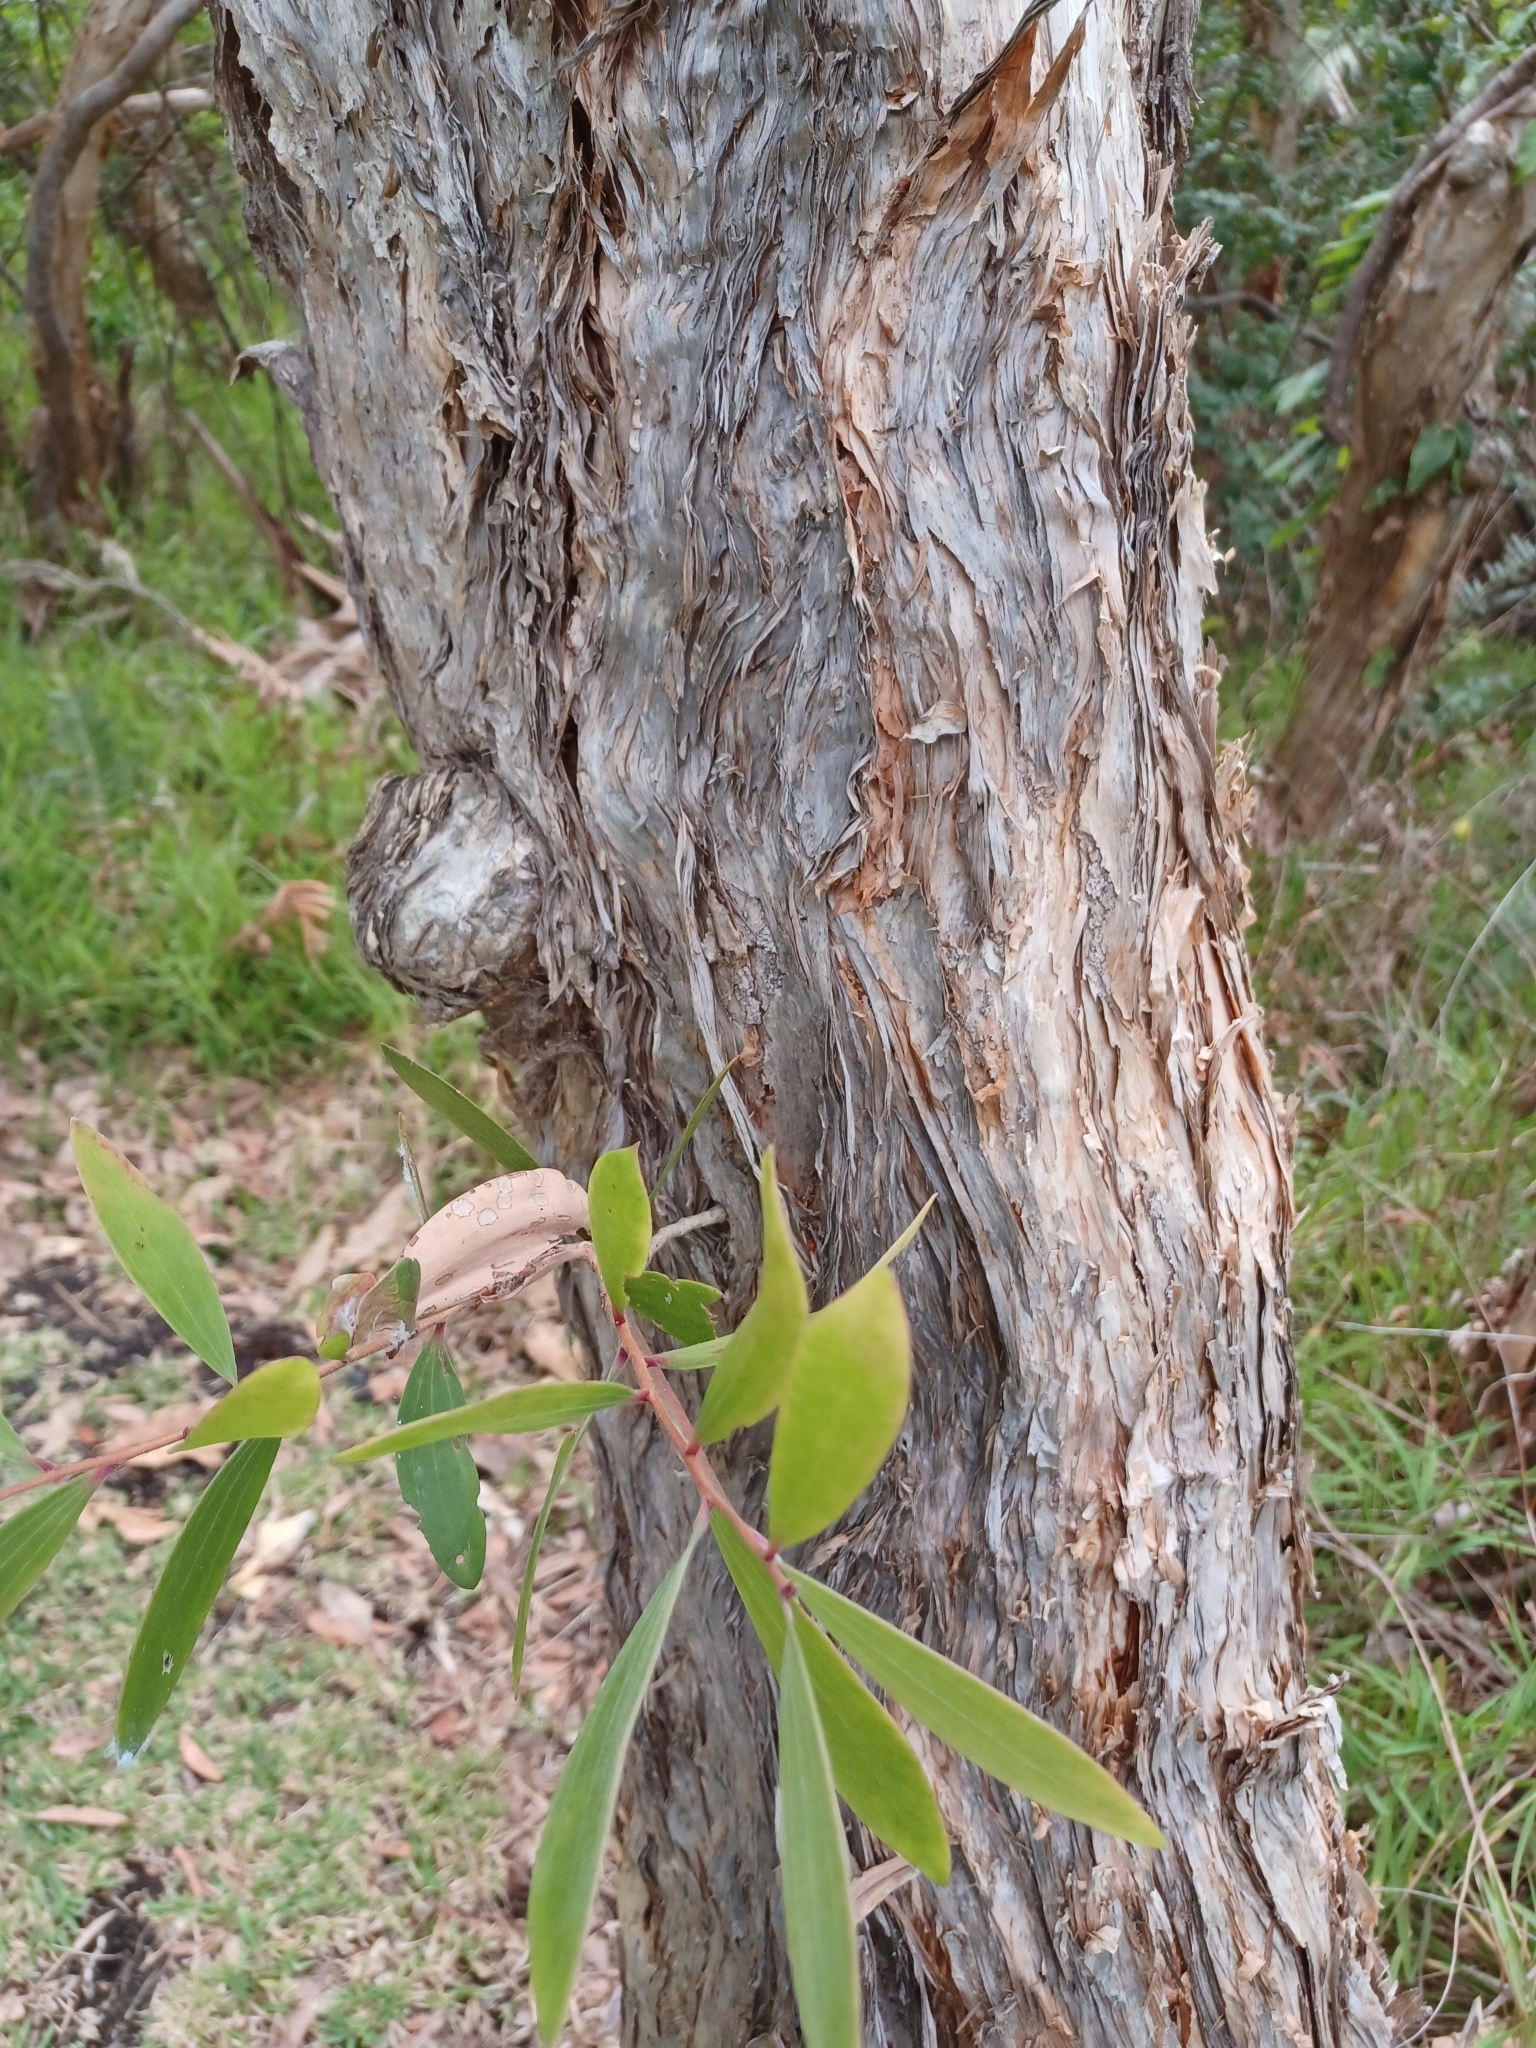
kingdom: Plantae
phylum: Tracheophyta
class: Magnoliopsida
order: Myrtales
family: Myrtaceae
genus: Melaleuca
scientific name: Melaleuca quinquenervia
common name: Punktree
